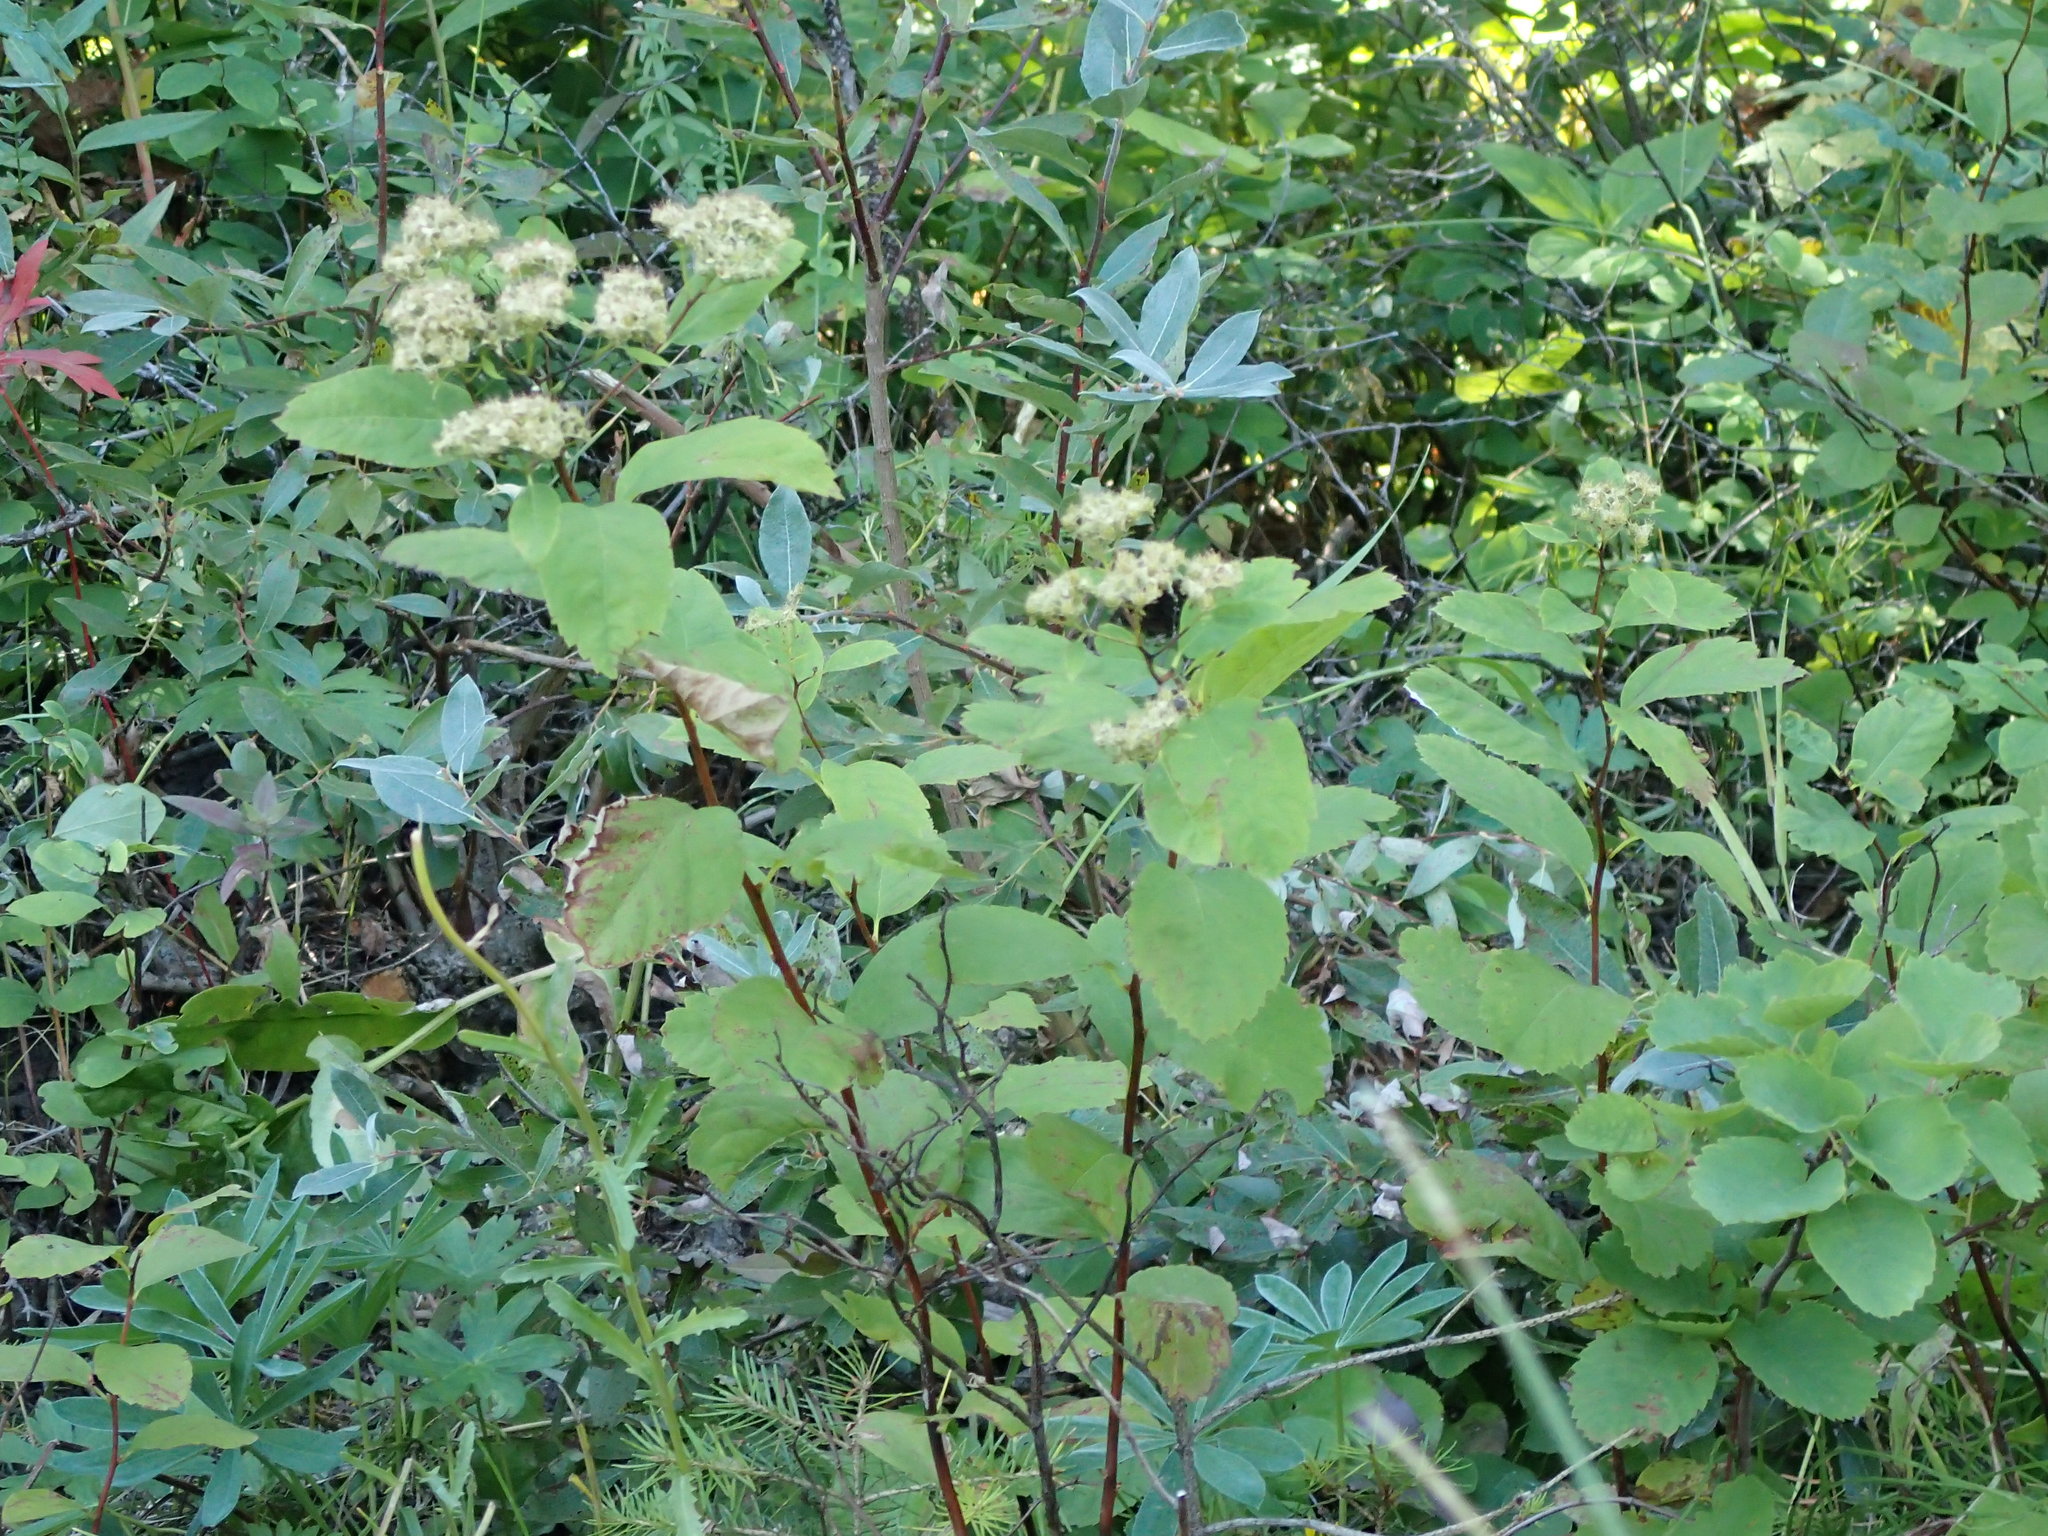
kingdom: Plantae
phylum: Tracheophyta
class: Magnoliopsida
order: Rosales
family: Rosaceae
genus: Spiraea
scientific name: Spiraea lucida
